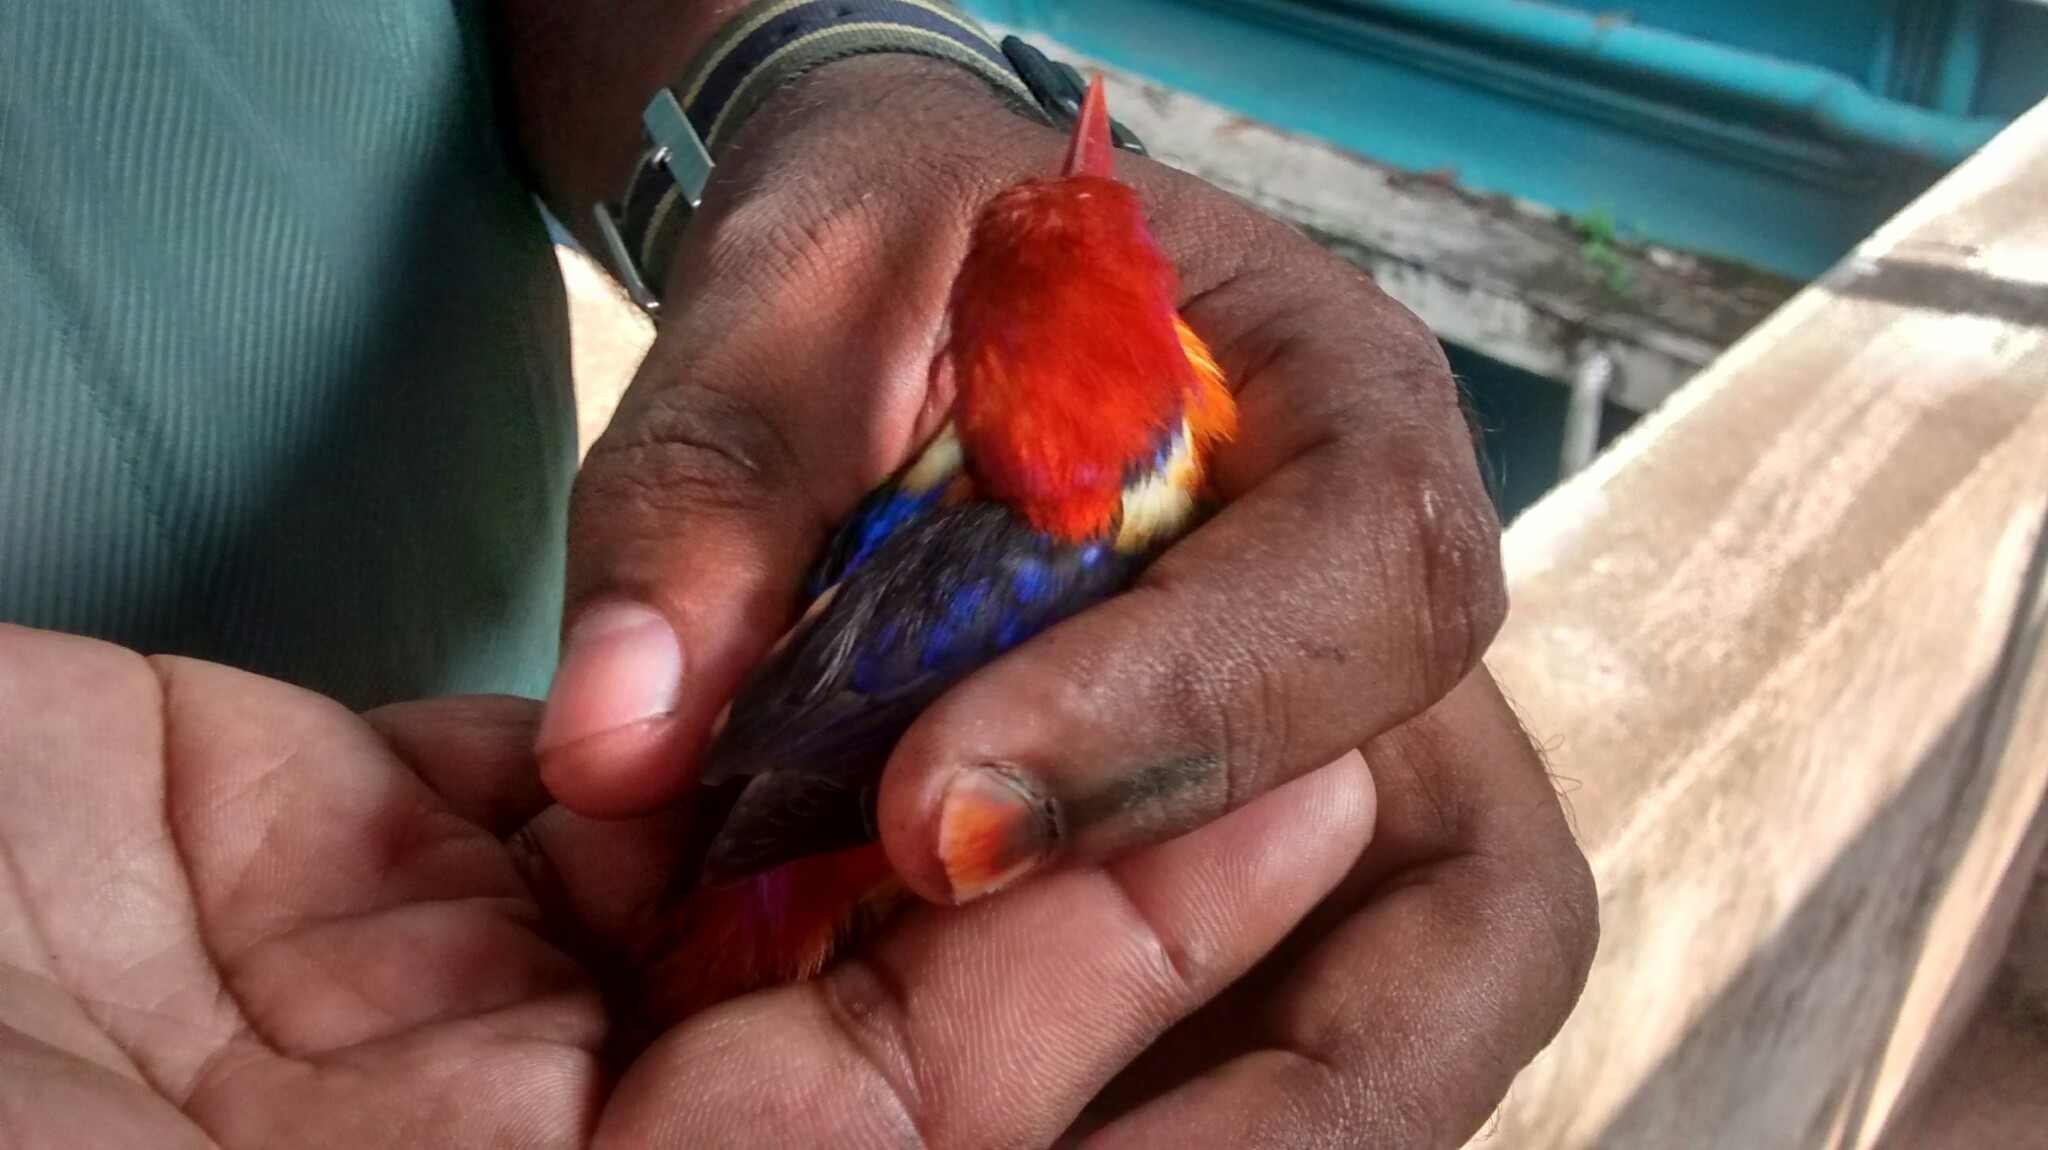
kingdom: Animalia
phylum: Chordata
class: Aves
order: Coraciiformes
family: Alcedinidae
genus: Ceyx
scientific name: Ceyx erithaca
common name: Oriental dwarf kingfisher
